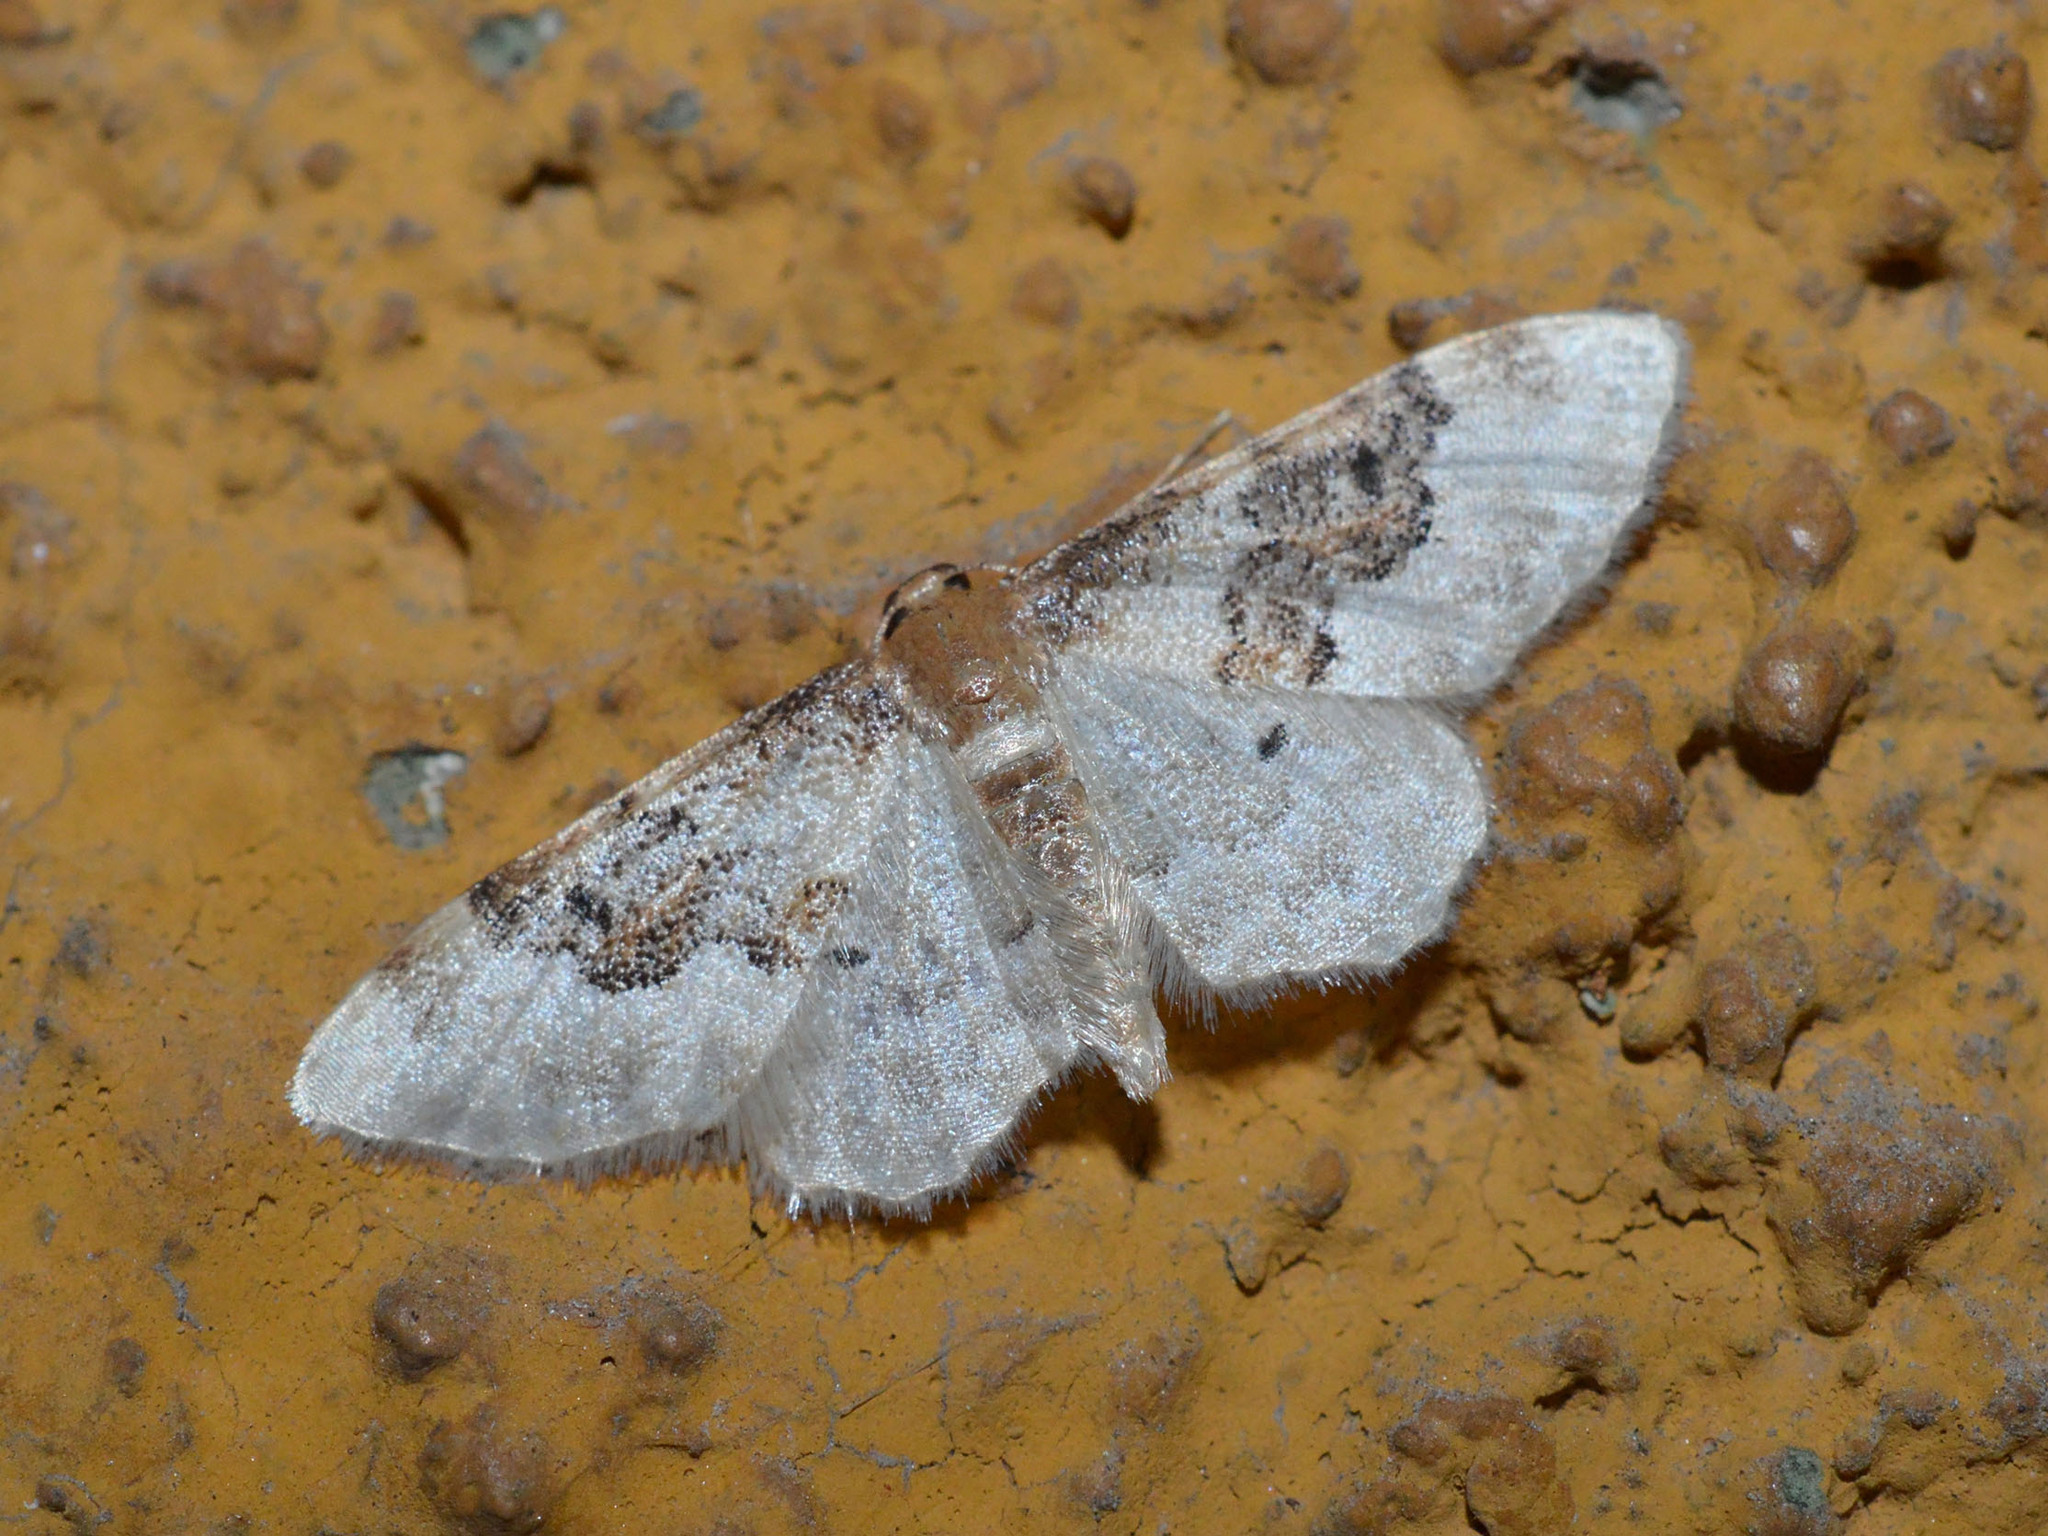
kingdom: Animalia
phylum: Arthropoda
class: Insecta
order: Lepidoptera
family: Geometridae
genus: Idaea
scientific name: Idaea rusticata
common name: Least carpet
